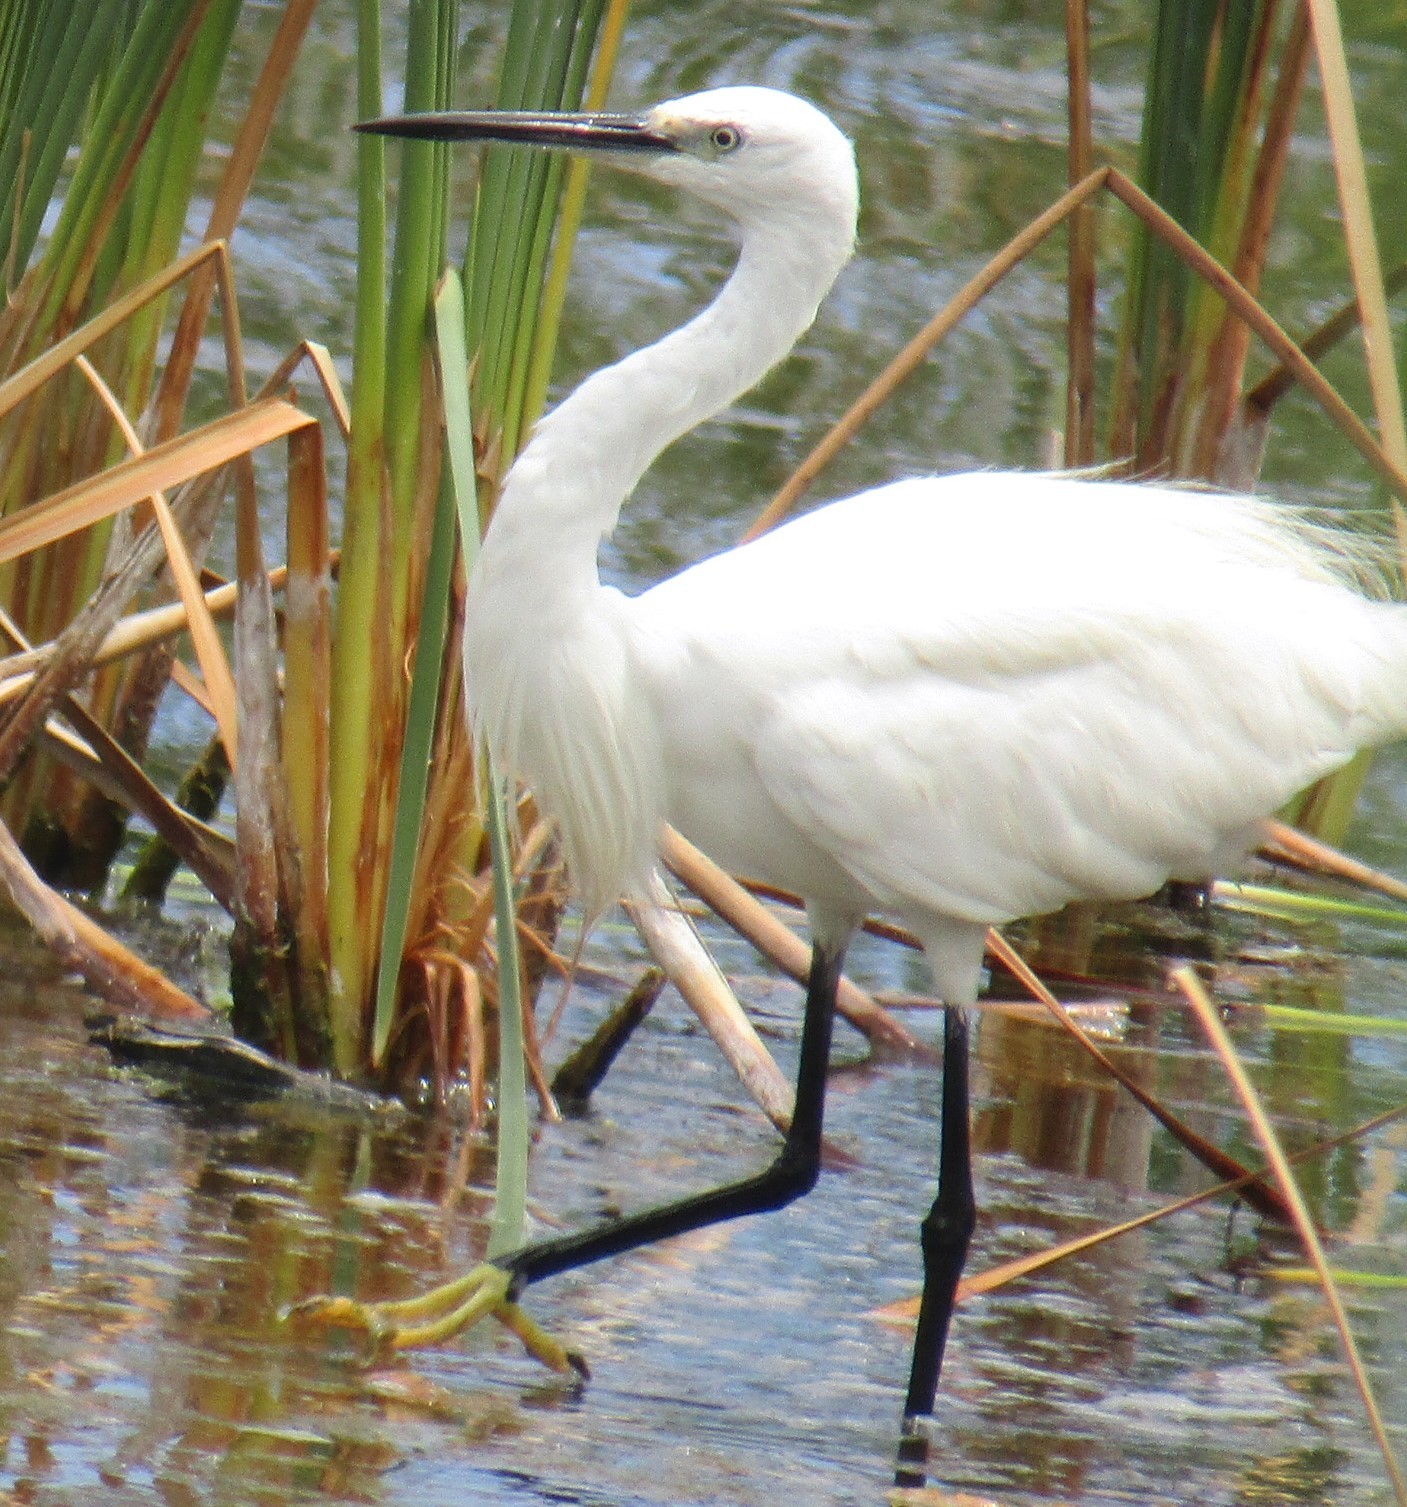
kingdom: Animalia
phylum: Chordata
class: Aves
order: Pelecaniformes
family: Ardeidae
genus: Egretta
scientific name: Egretta garzetta
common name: Little egret
